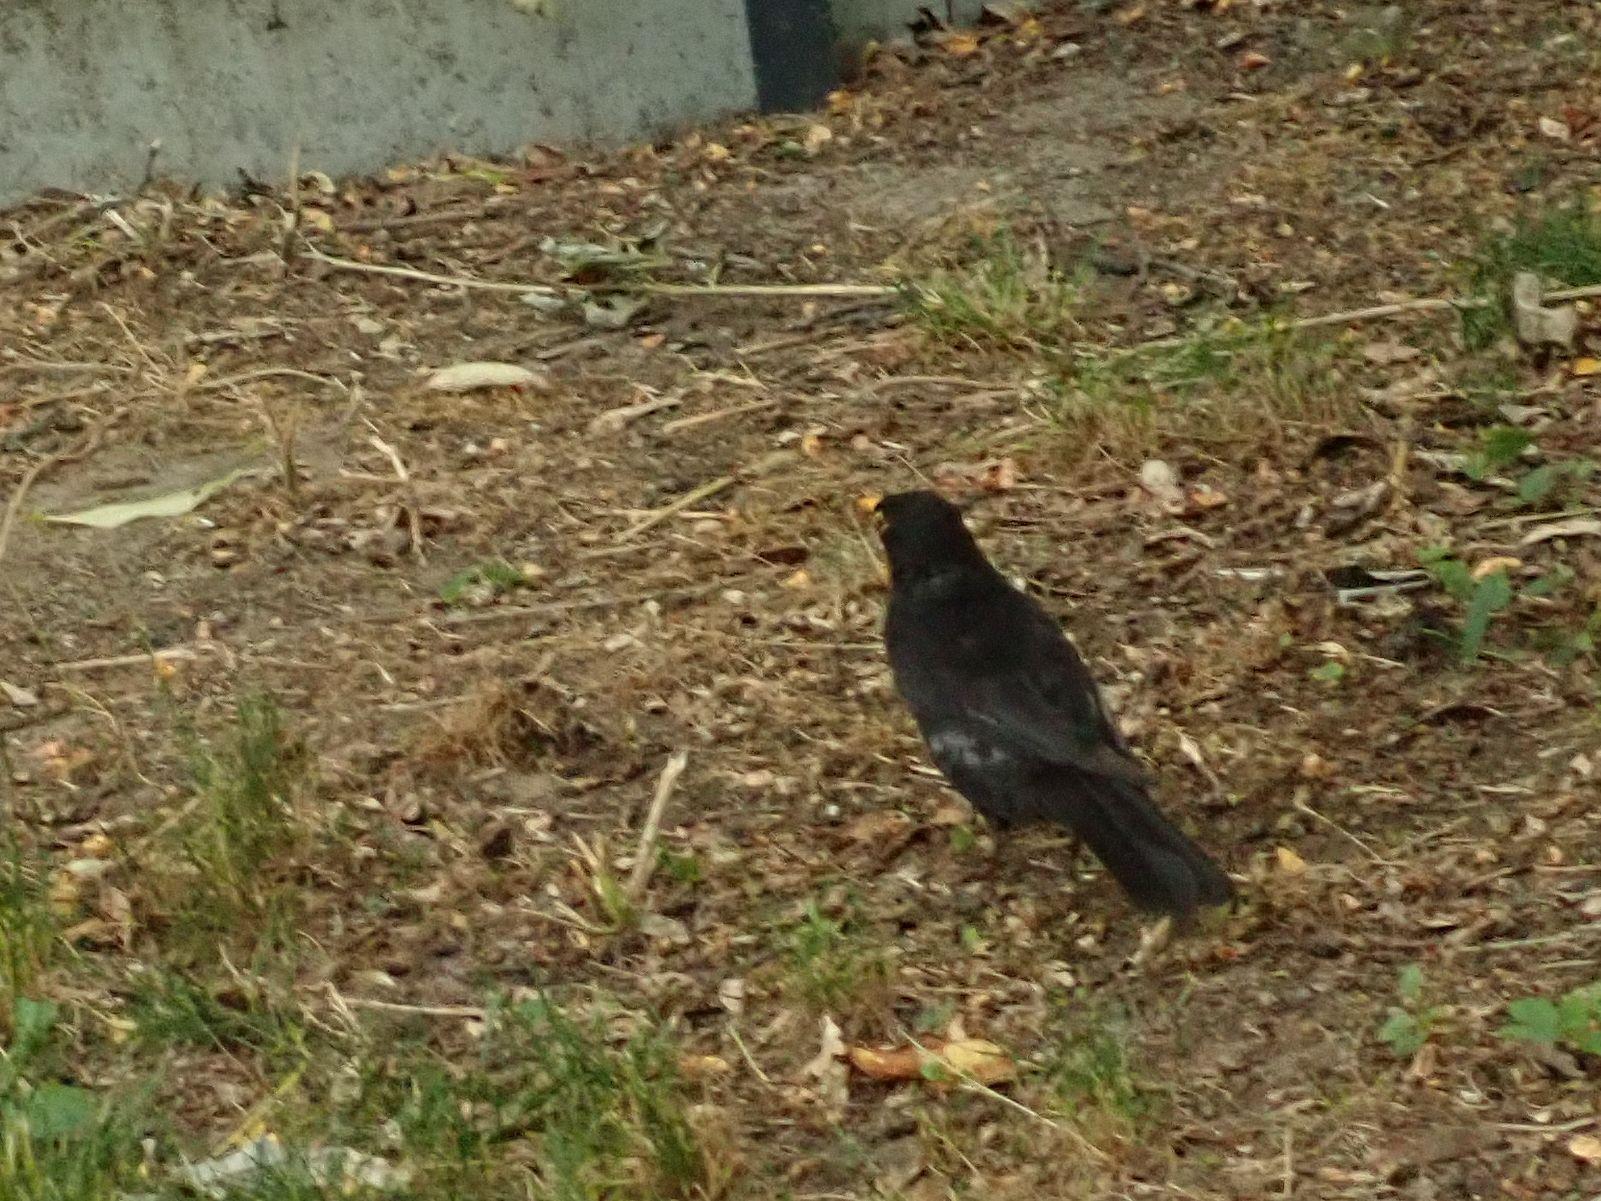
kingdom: Animalia
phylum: Chordata
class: Aves
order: Passeriformes
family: Turdidae
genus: Turdus
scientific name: Turdus merula
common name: Common blackbird
